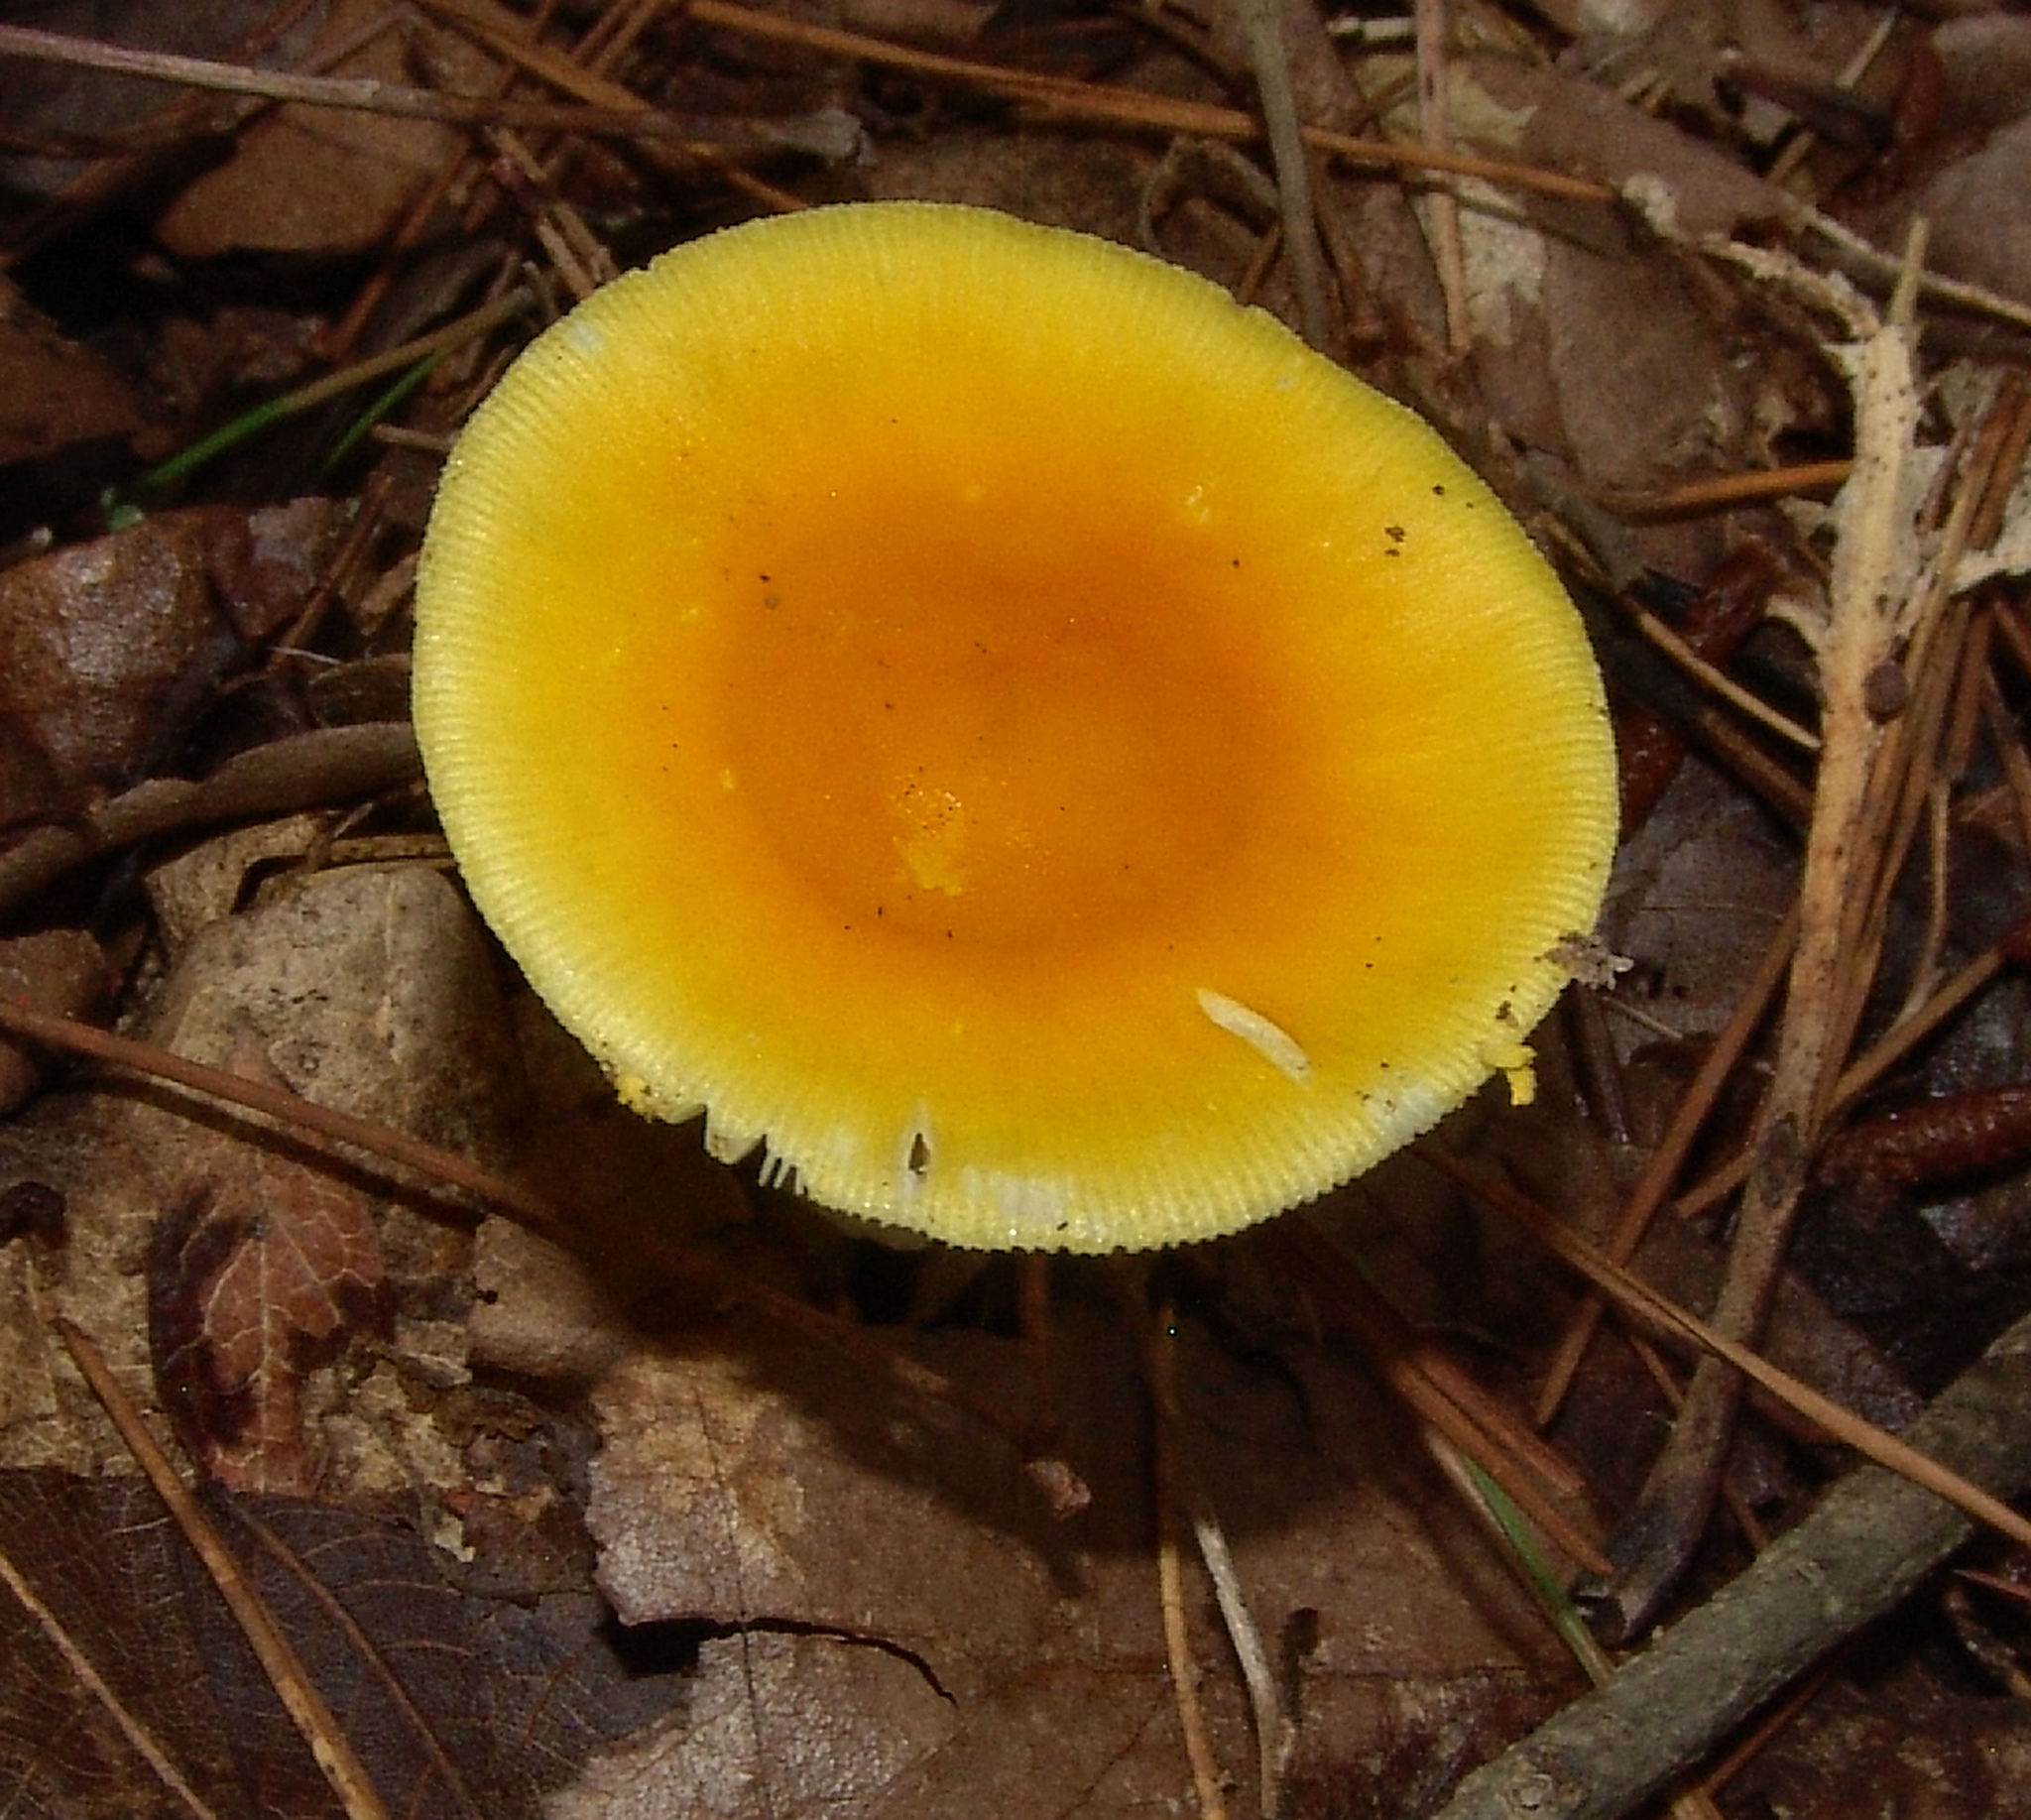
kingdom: Fungi
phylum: Basidiomycota
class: Agaricomycetes
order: Agaricales
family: Amanitaceae
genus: Amanita
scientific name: Amanita elongata
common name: Peck's yellow dust amanita
